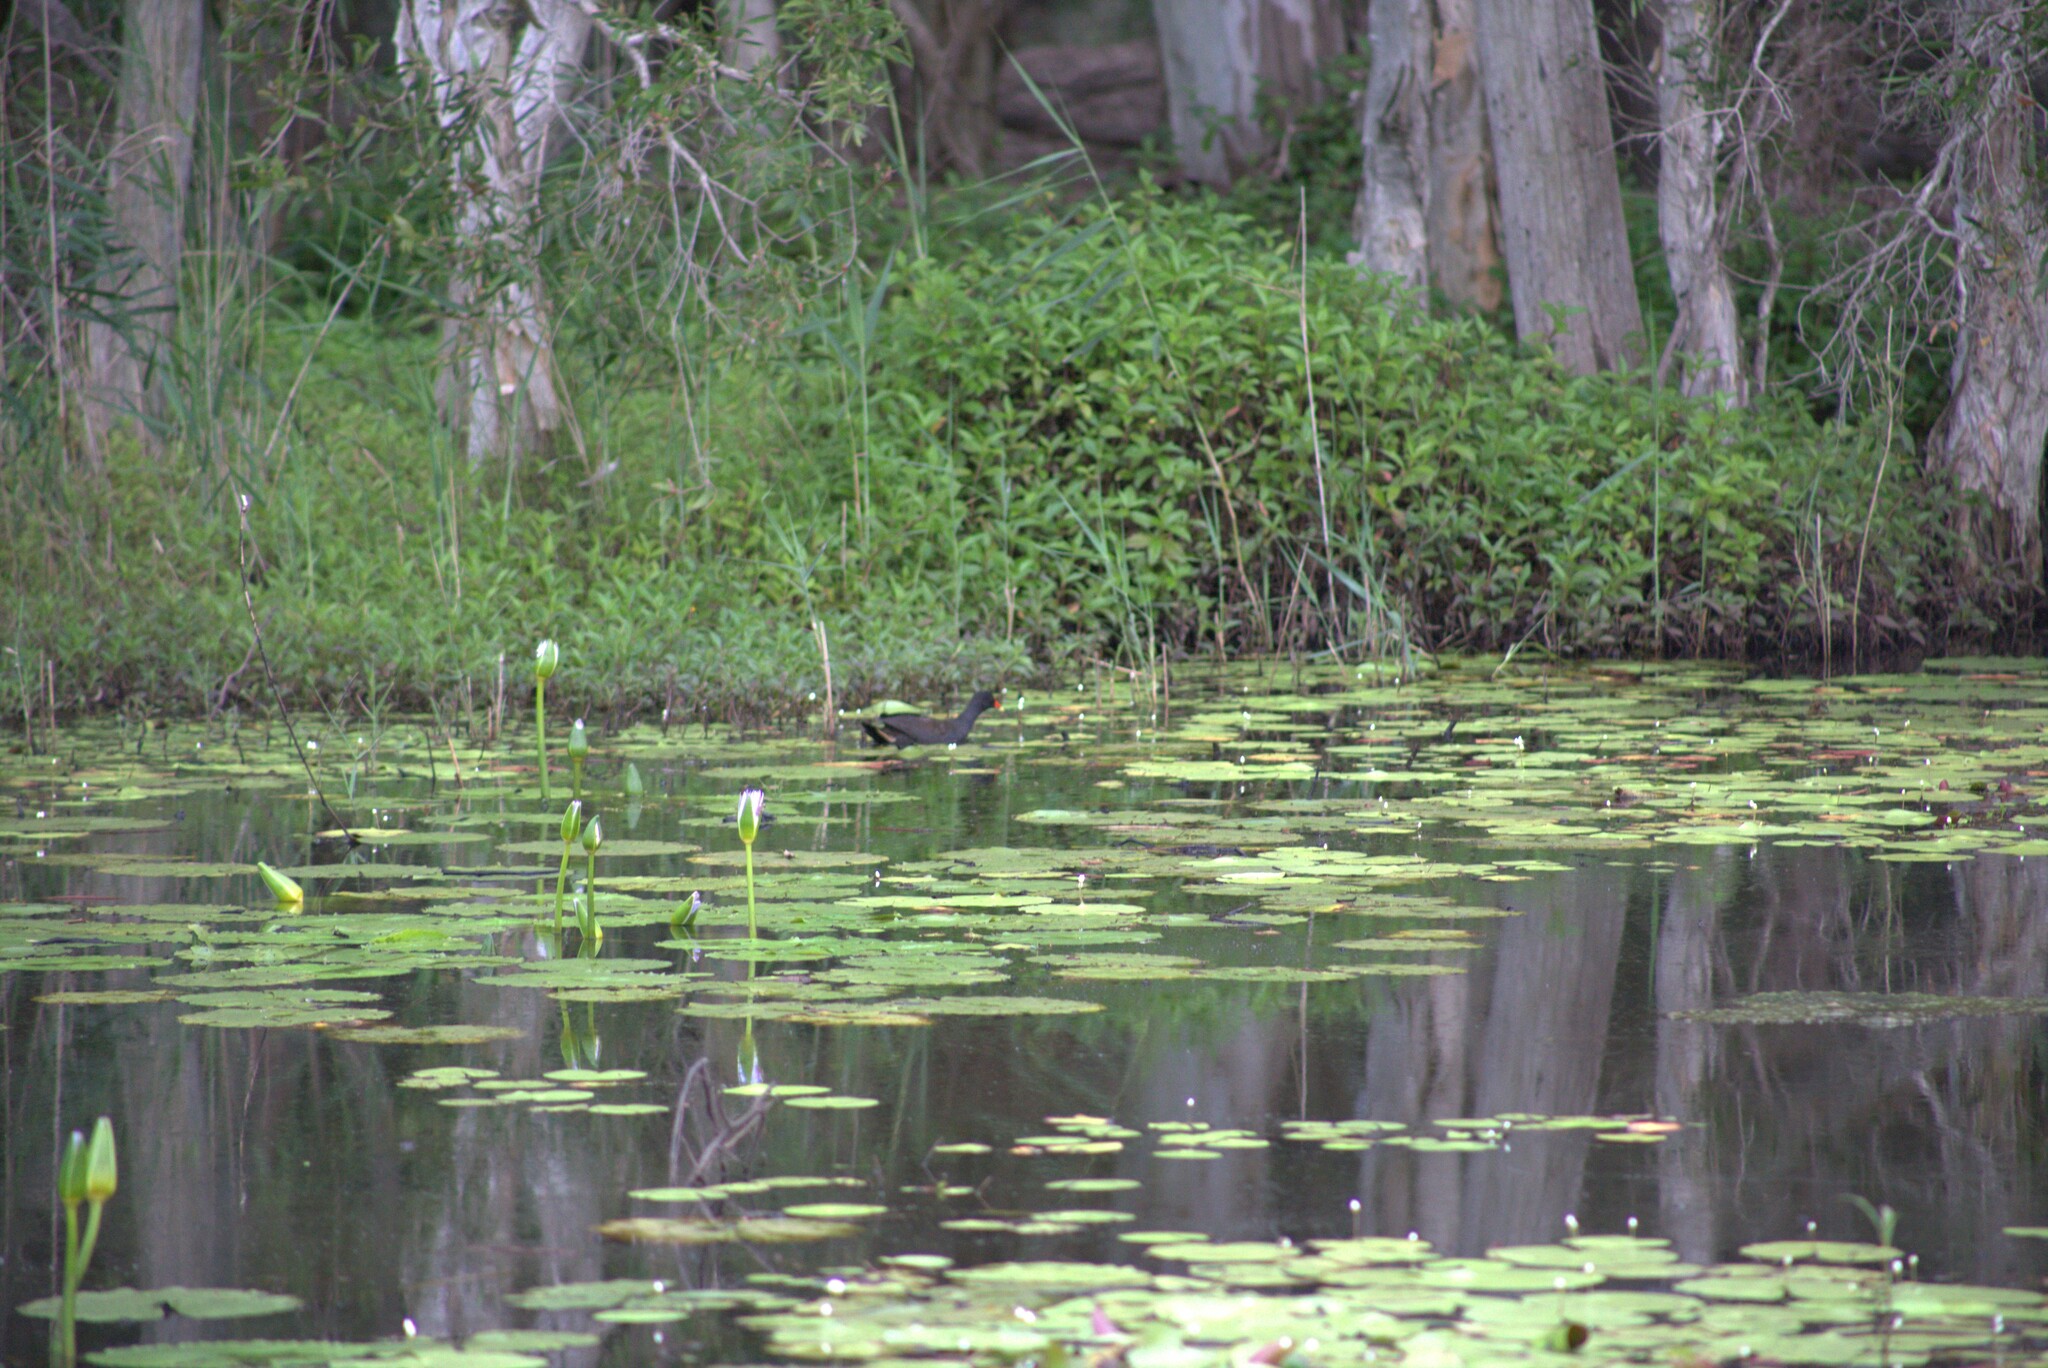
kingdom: Animalia
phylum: Chordata
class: Aves
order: Gruiformes
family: Rallidae
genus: Gallinula
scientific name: Gallinula tenebrosa
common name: Dusky moorhen
